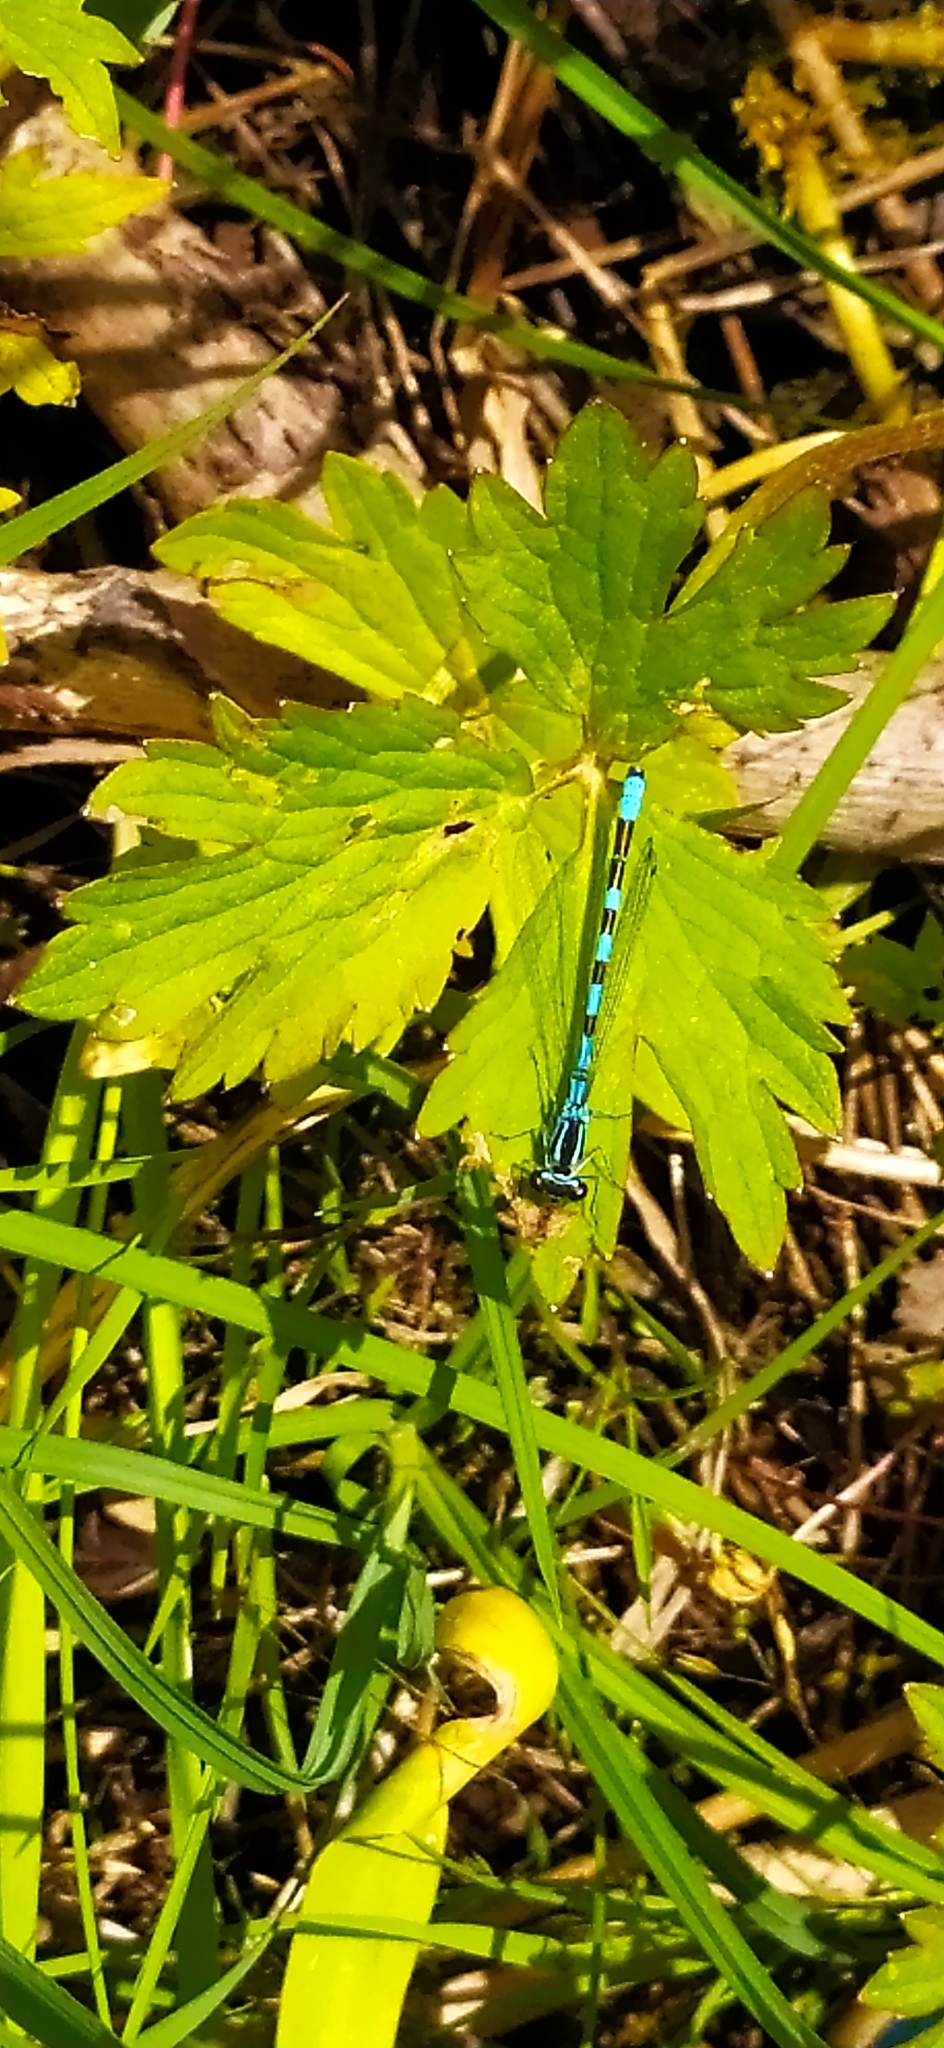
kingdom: Animalia
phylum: Arthropoda
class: Insecta
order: Odonata
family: Coenagrionidae
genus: Coenagrion
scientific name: Coenagrion hastulatum
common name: Spearhead bluet
